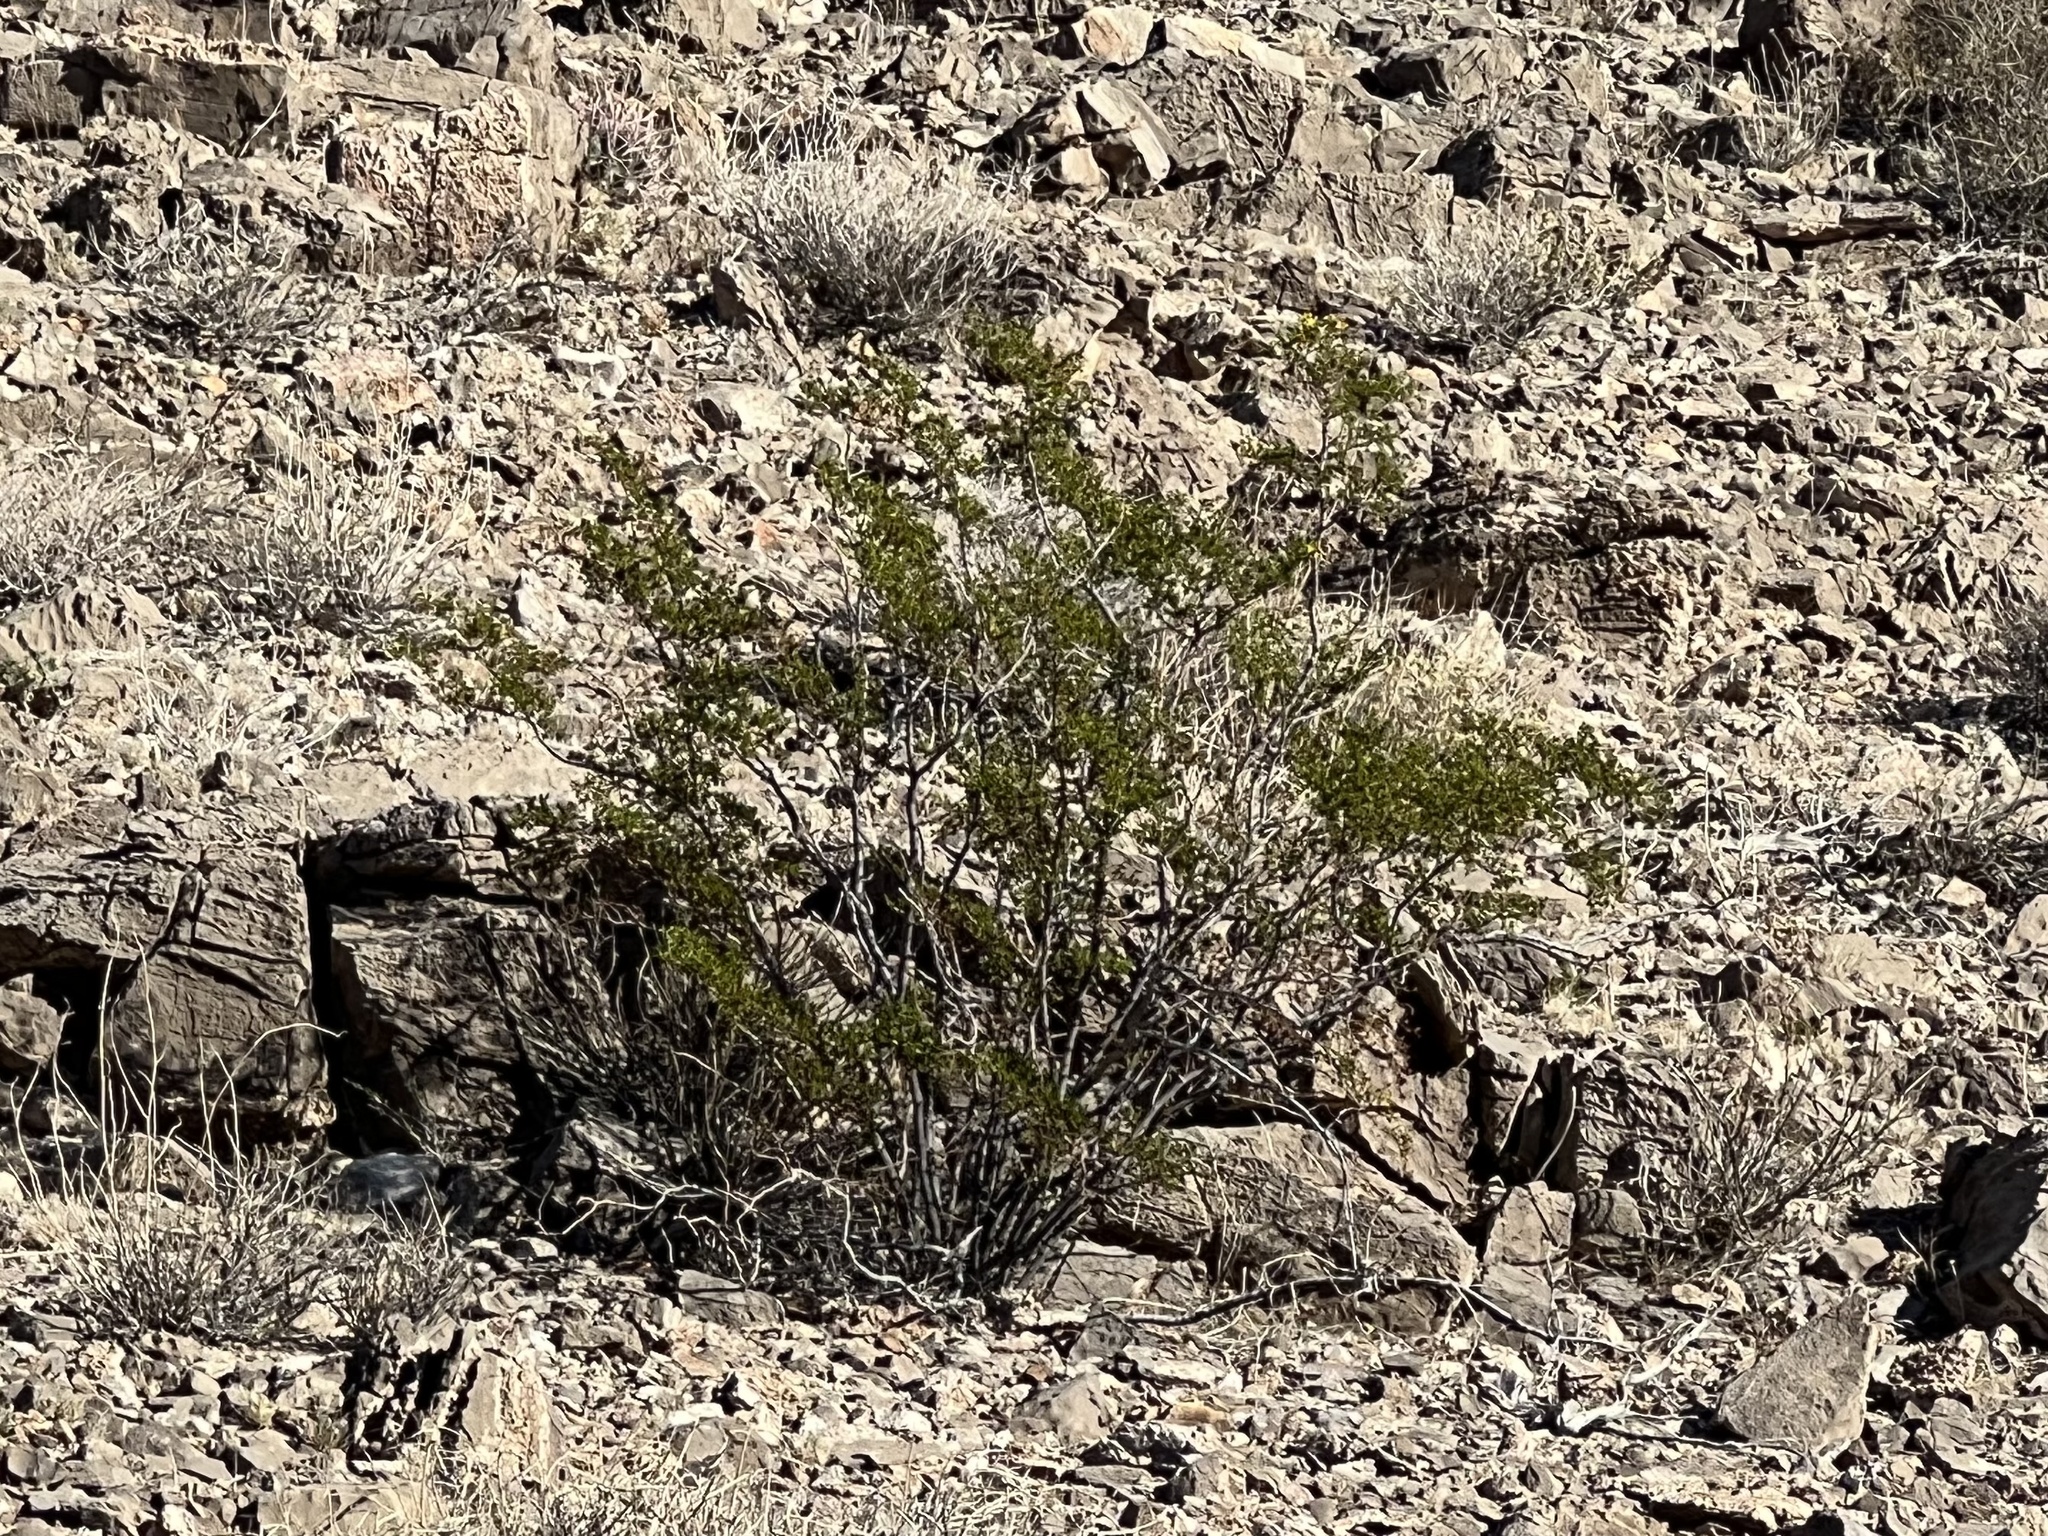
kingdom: Plantae
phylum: Tracheophyta
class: Magnoliopsida
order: Zygophyllales
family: Zygophyllaceae
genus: Larrea
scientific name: Larrea tridentata
